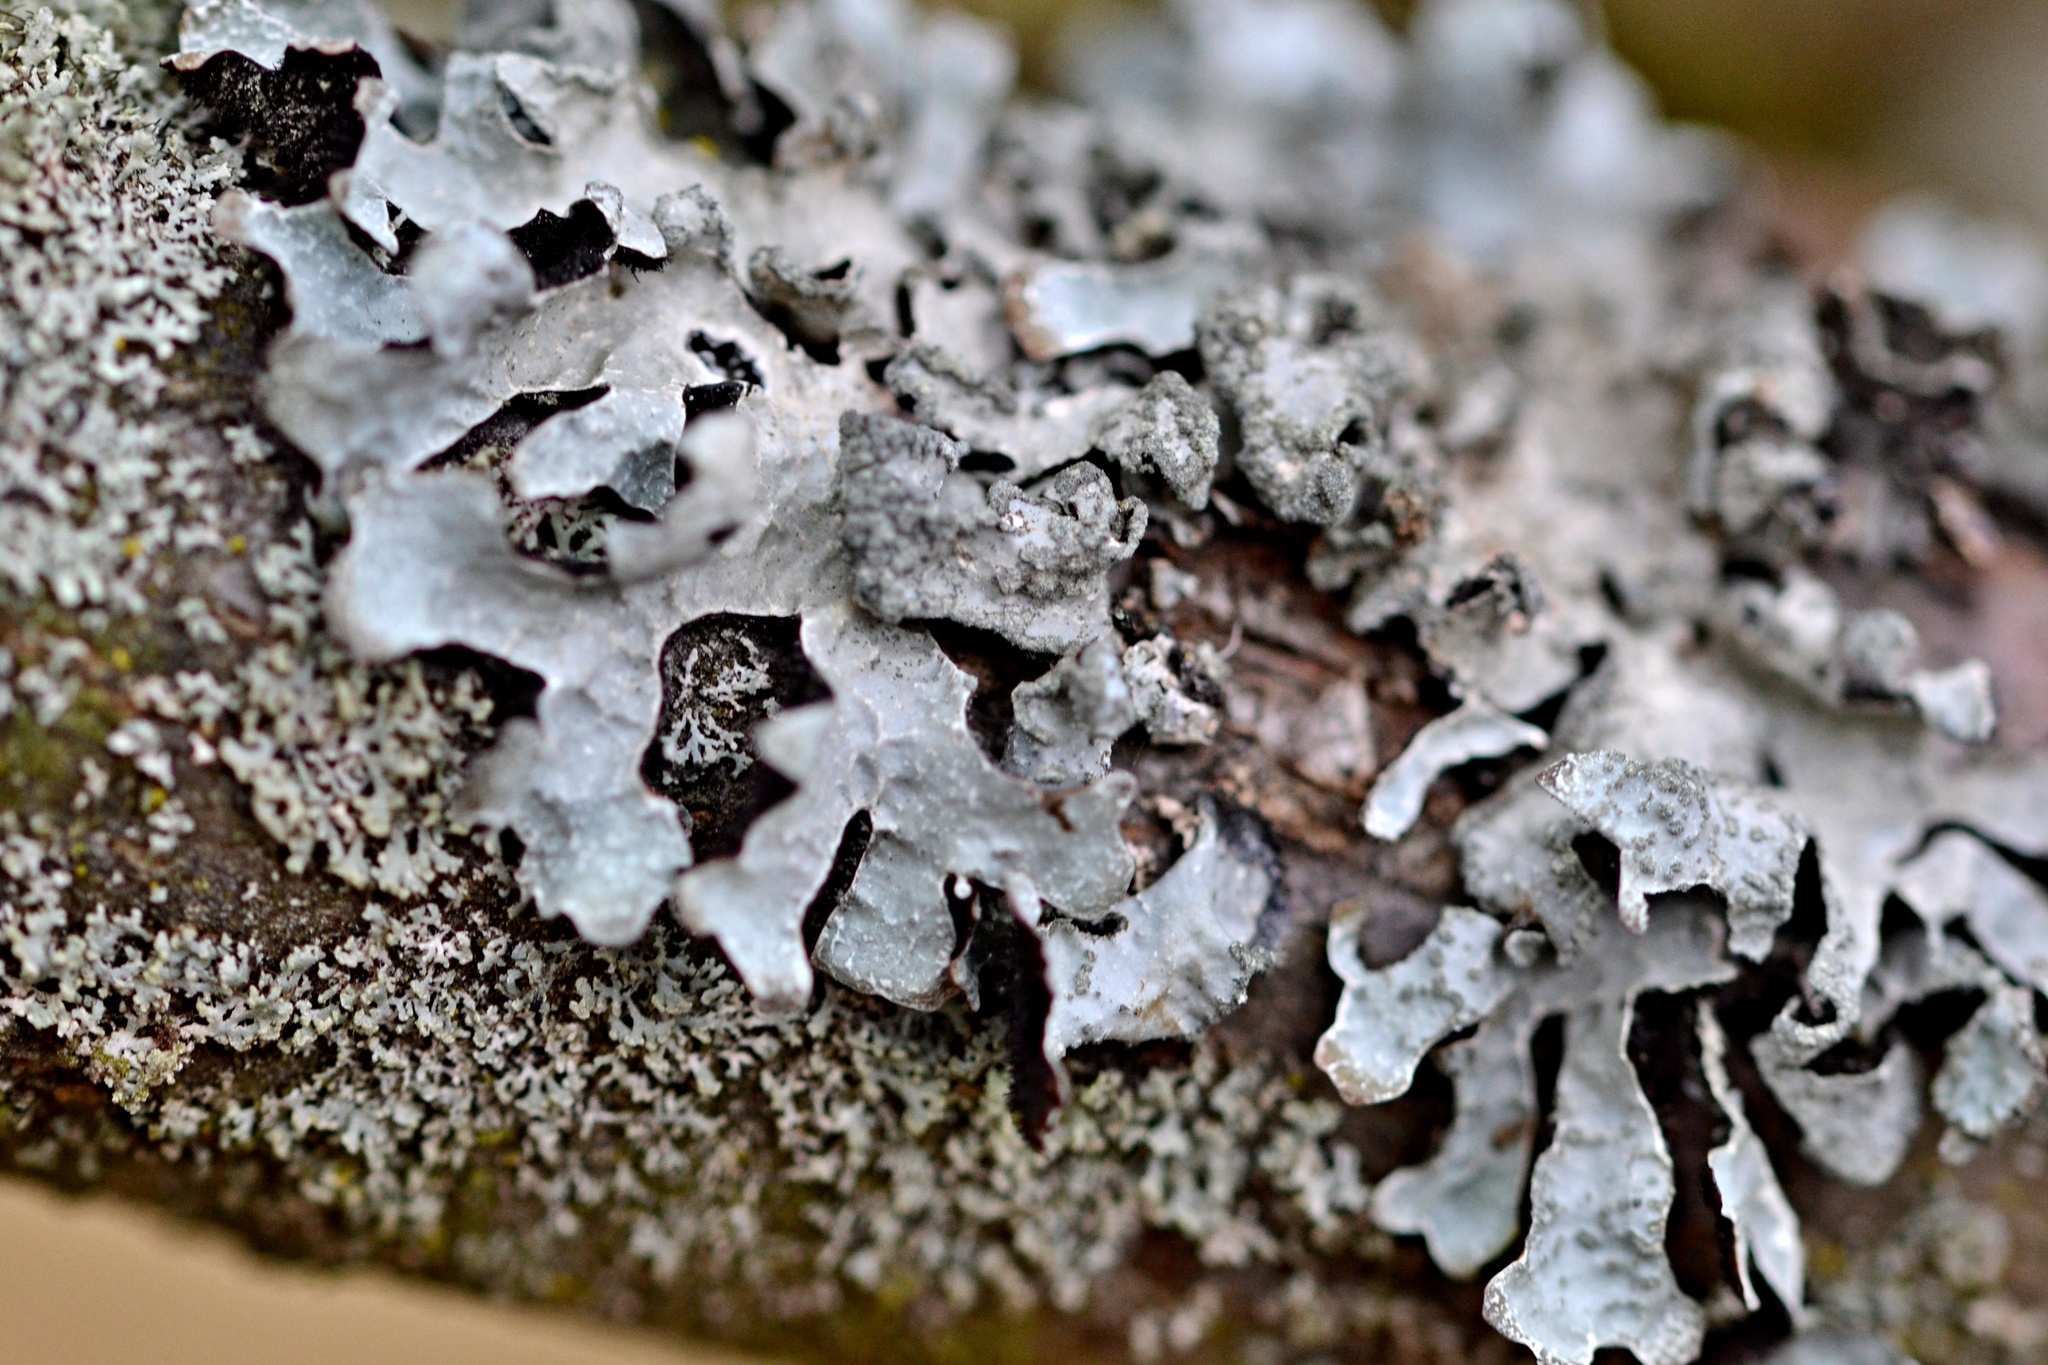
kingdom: Fungi
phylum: Ascomycota
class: Lecanoromycetes
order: Lecanorales
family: Parmeliaceae
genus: Parmelia
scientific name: Parmelia sulcata
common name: Netted shield lichen
